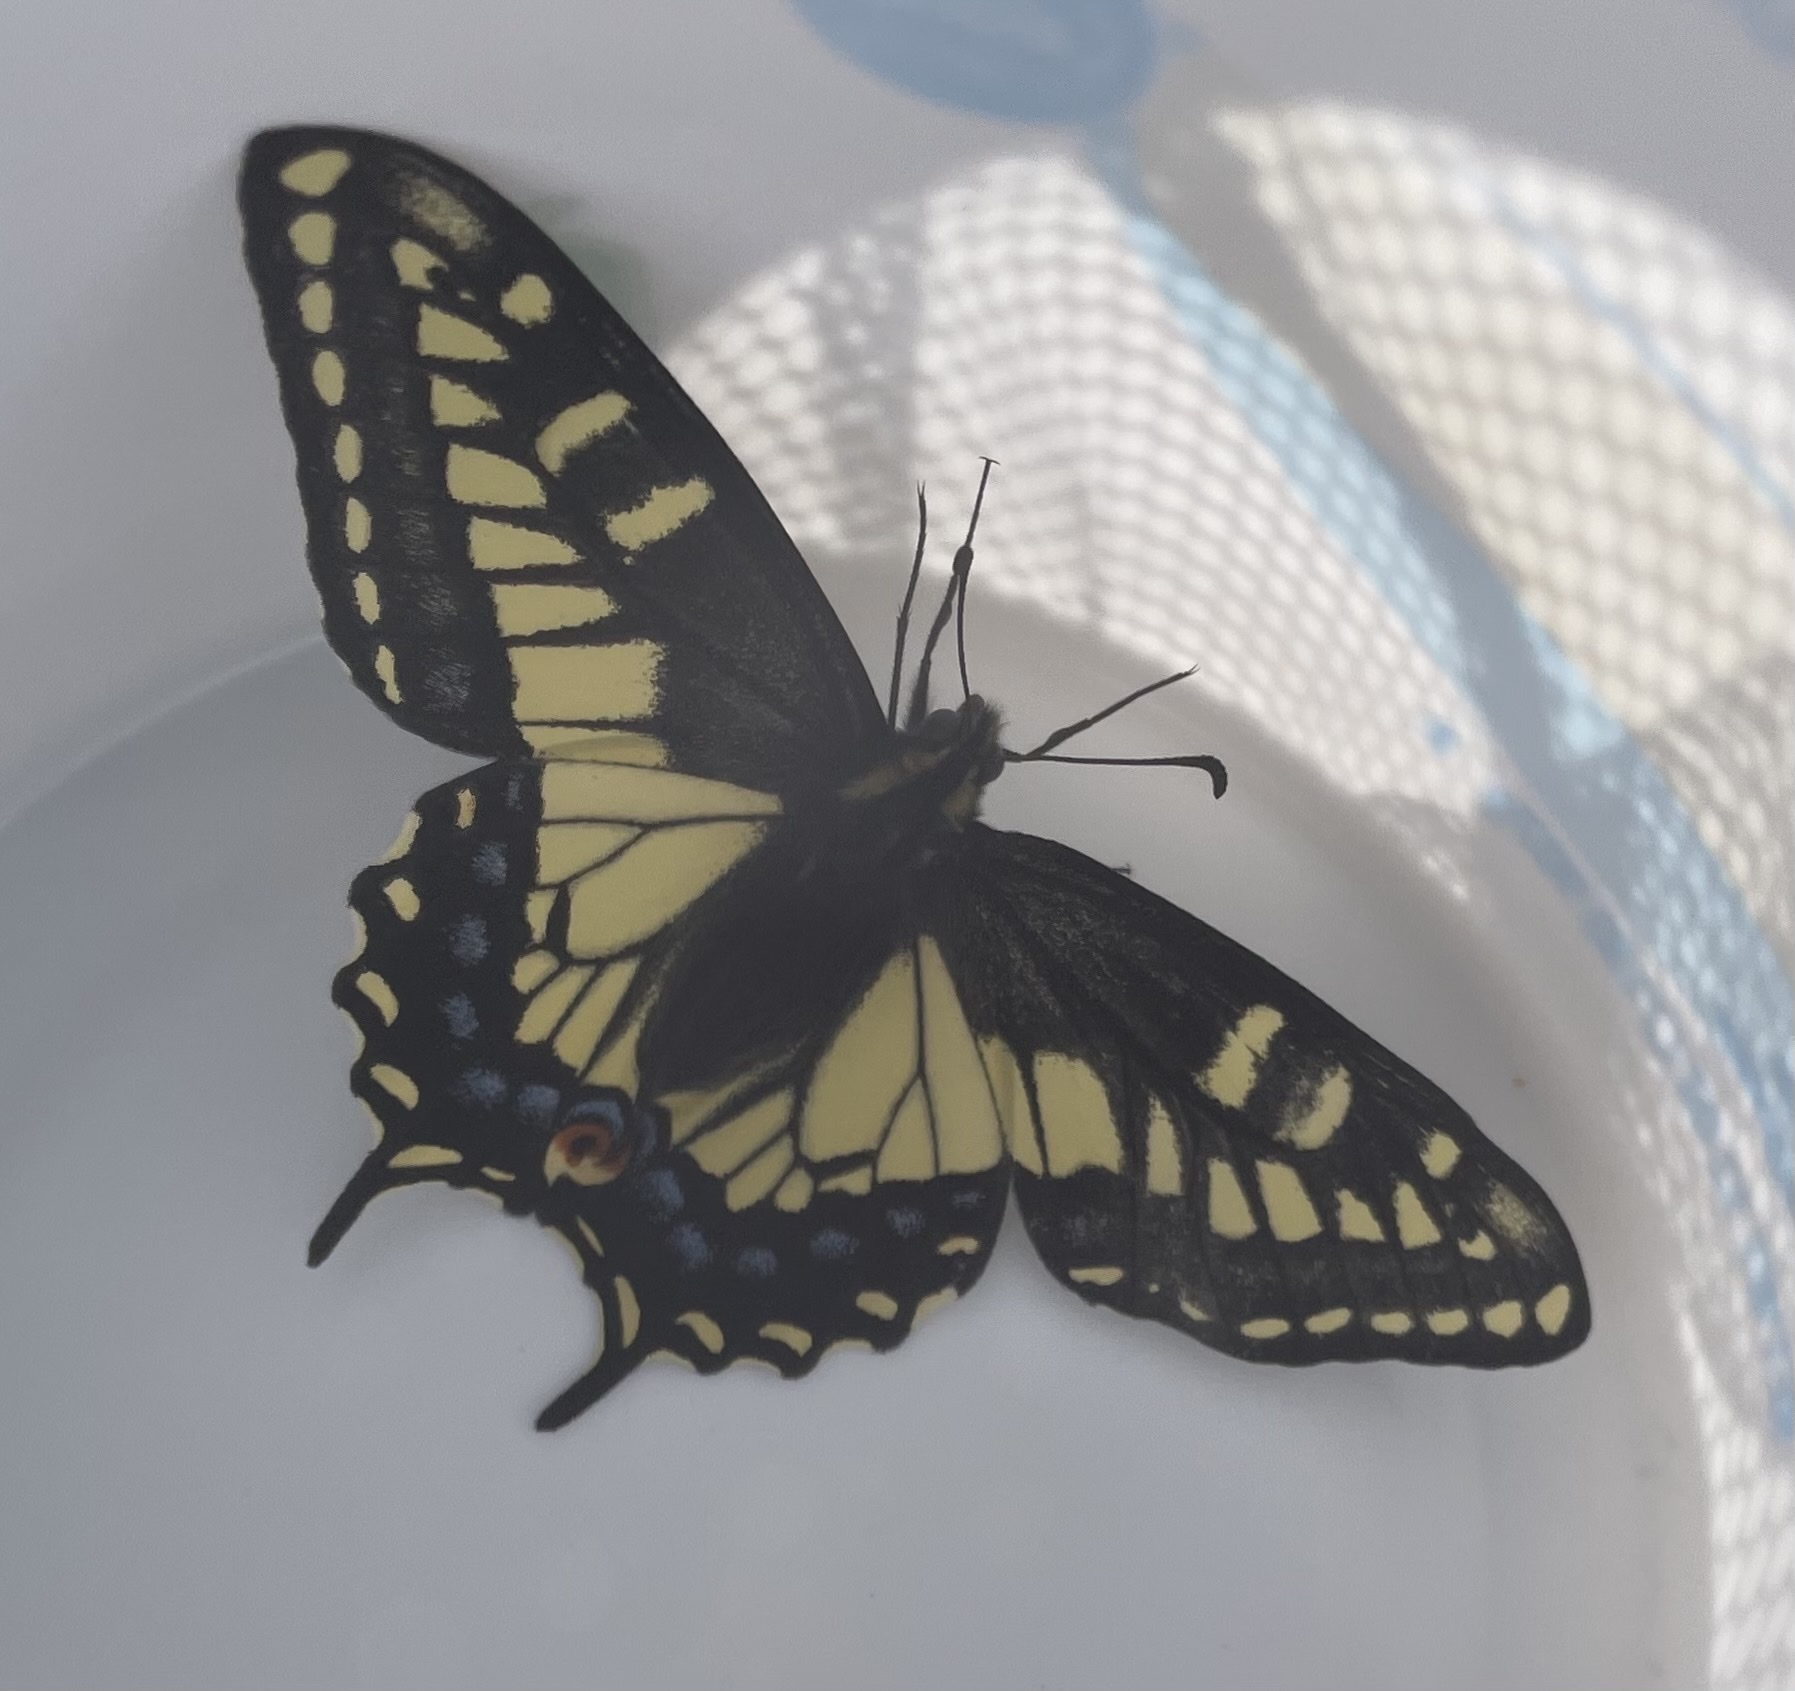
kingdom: Animalia
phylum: Arthropoda
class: Insecta
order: Lepidoptera
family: Papilionidae
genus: Papilio
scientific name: Papilio zelicaon
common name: Anise swallowtail
